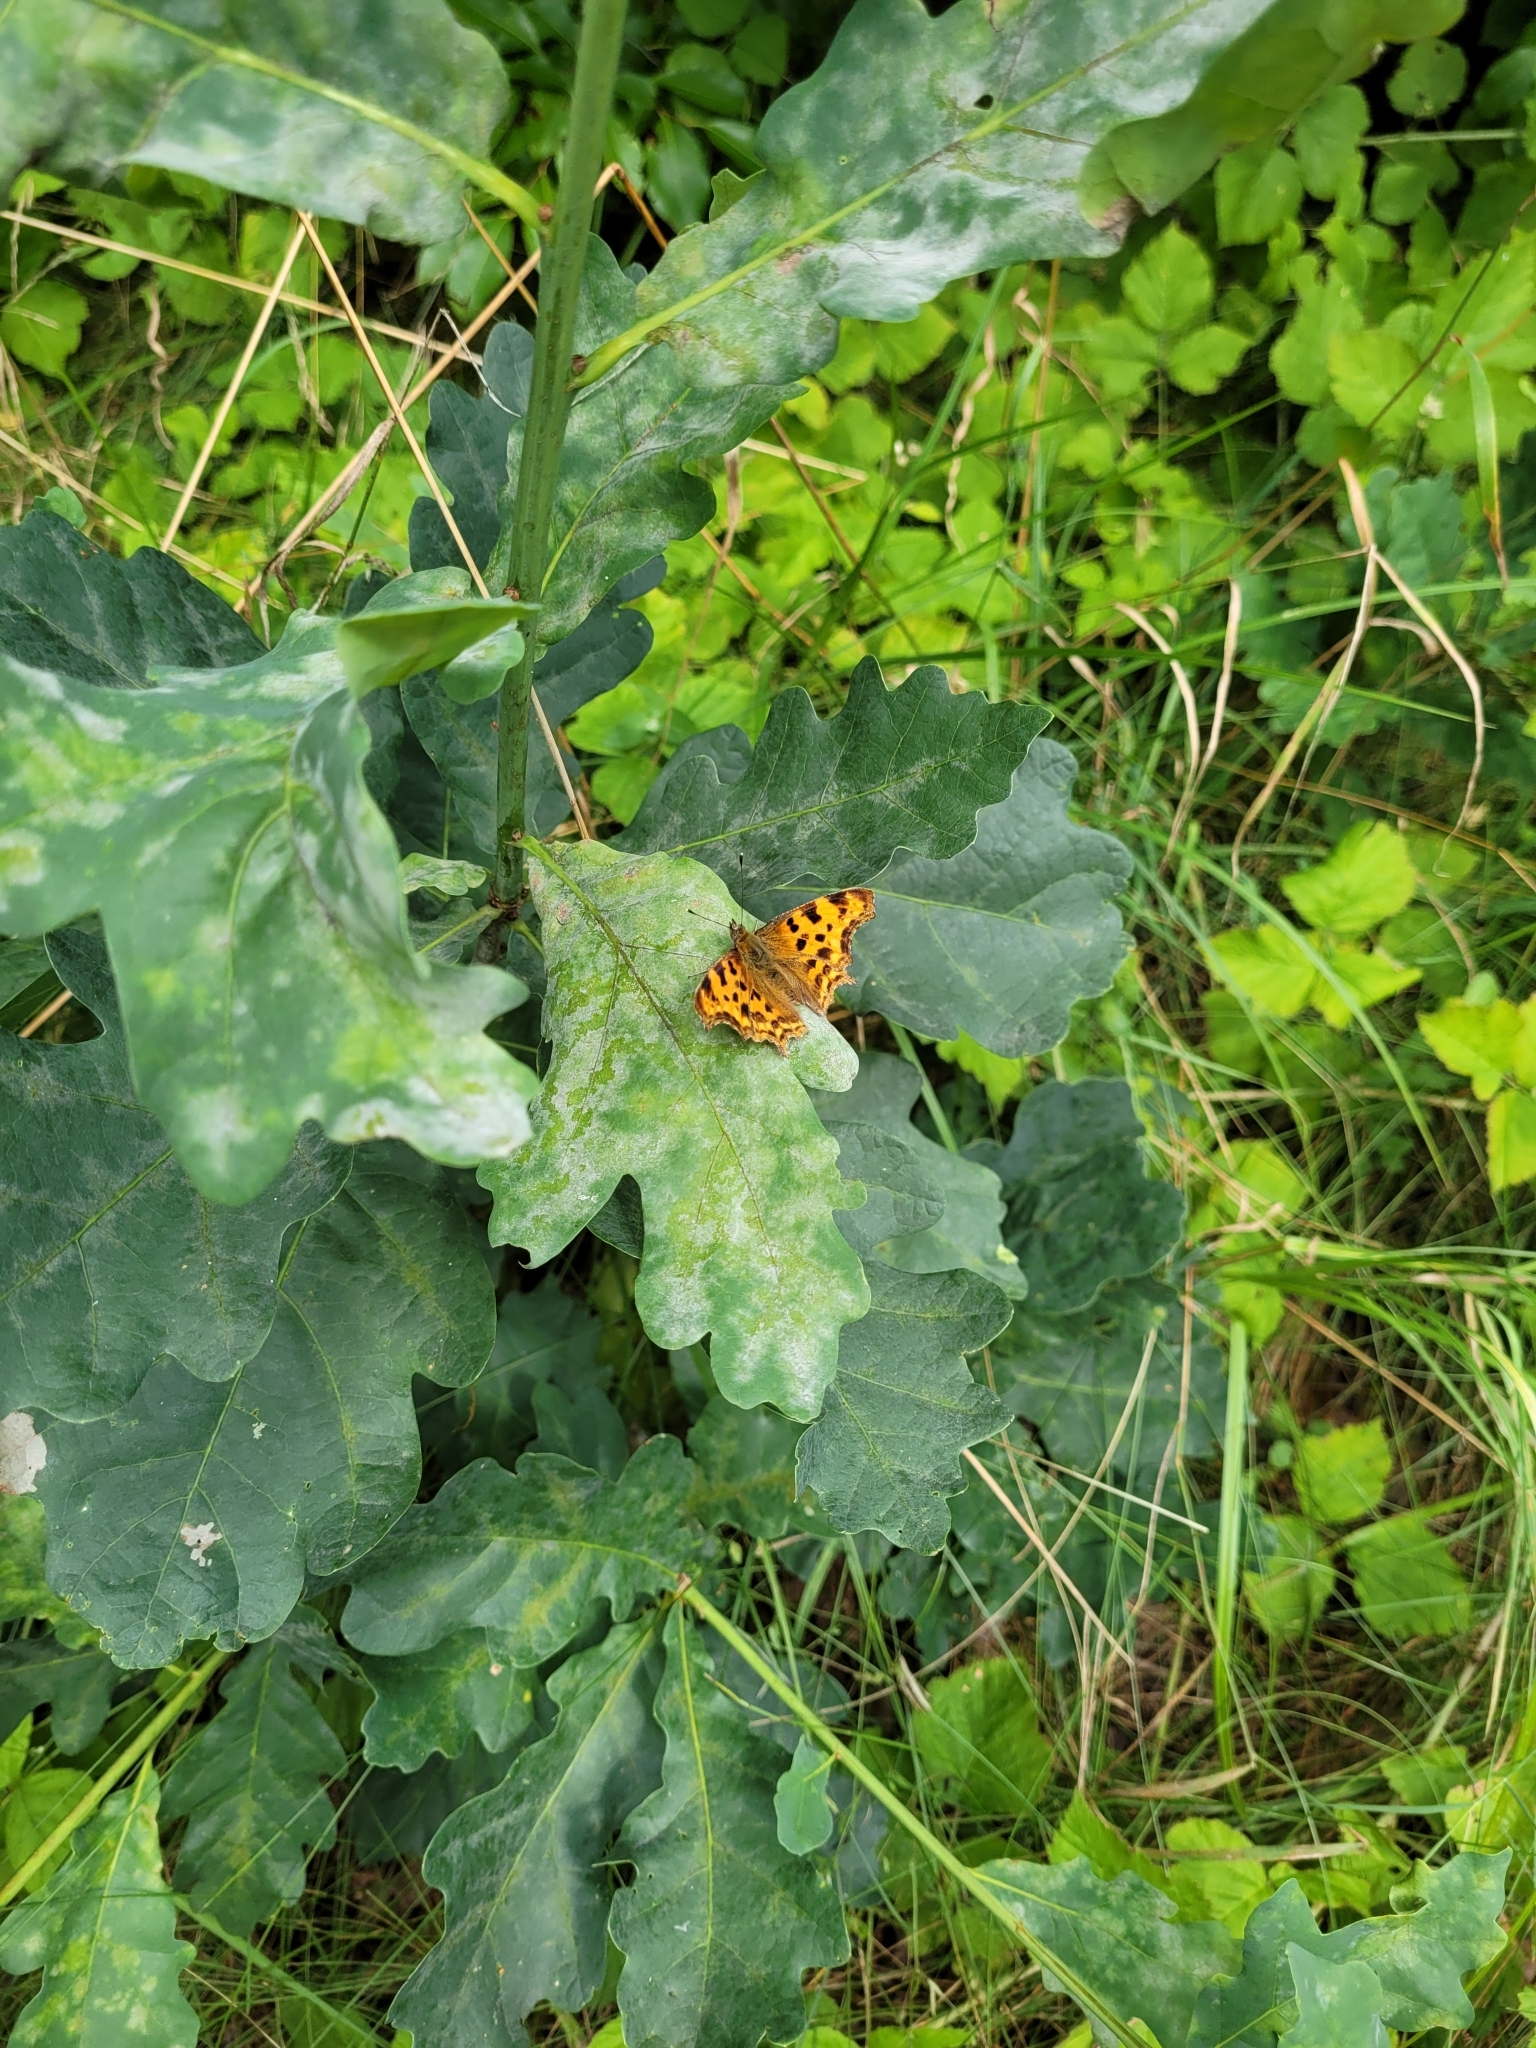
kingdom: Animalia
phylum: Arthropoda
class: Insecta
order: Lepidoptera
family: Nymphalidae
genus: Polygonia
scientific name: Polygonia c-album
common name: Comma
